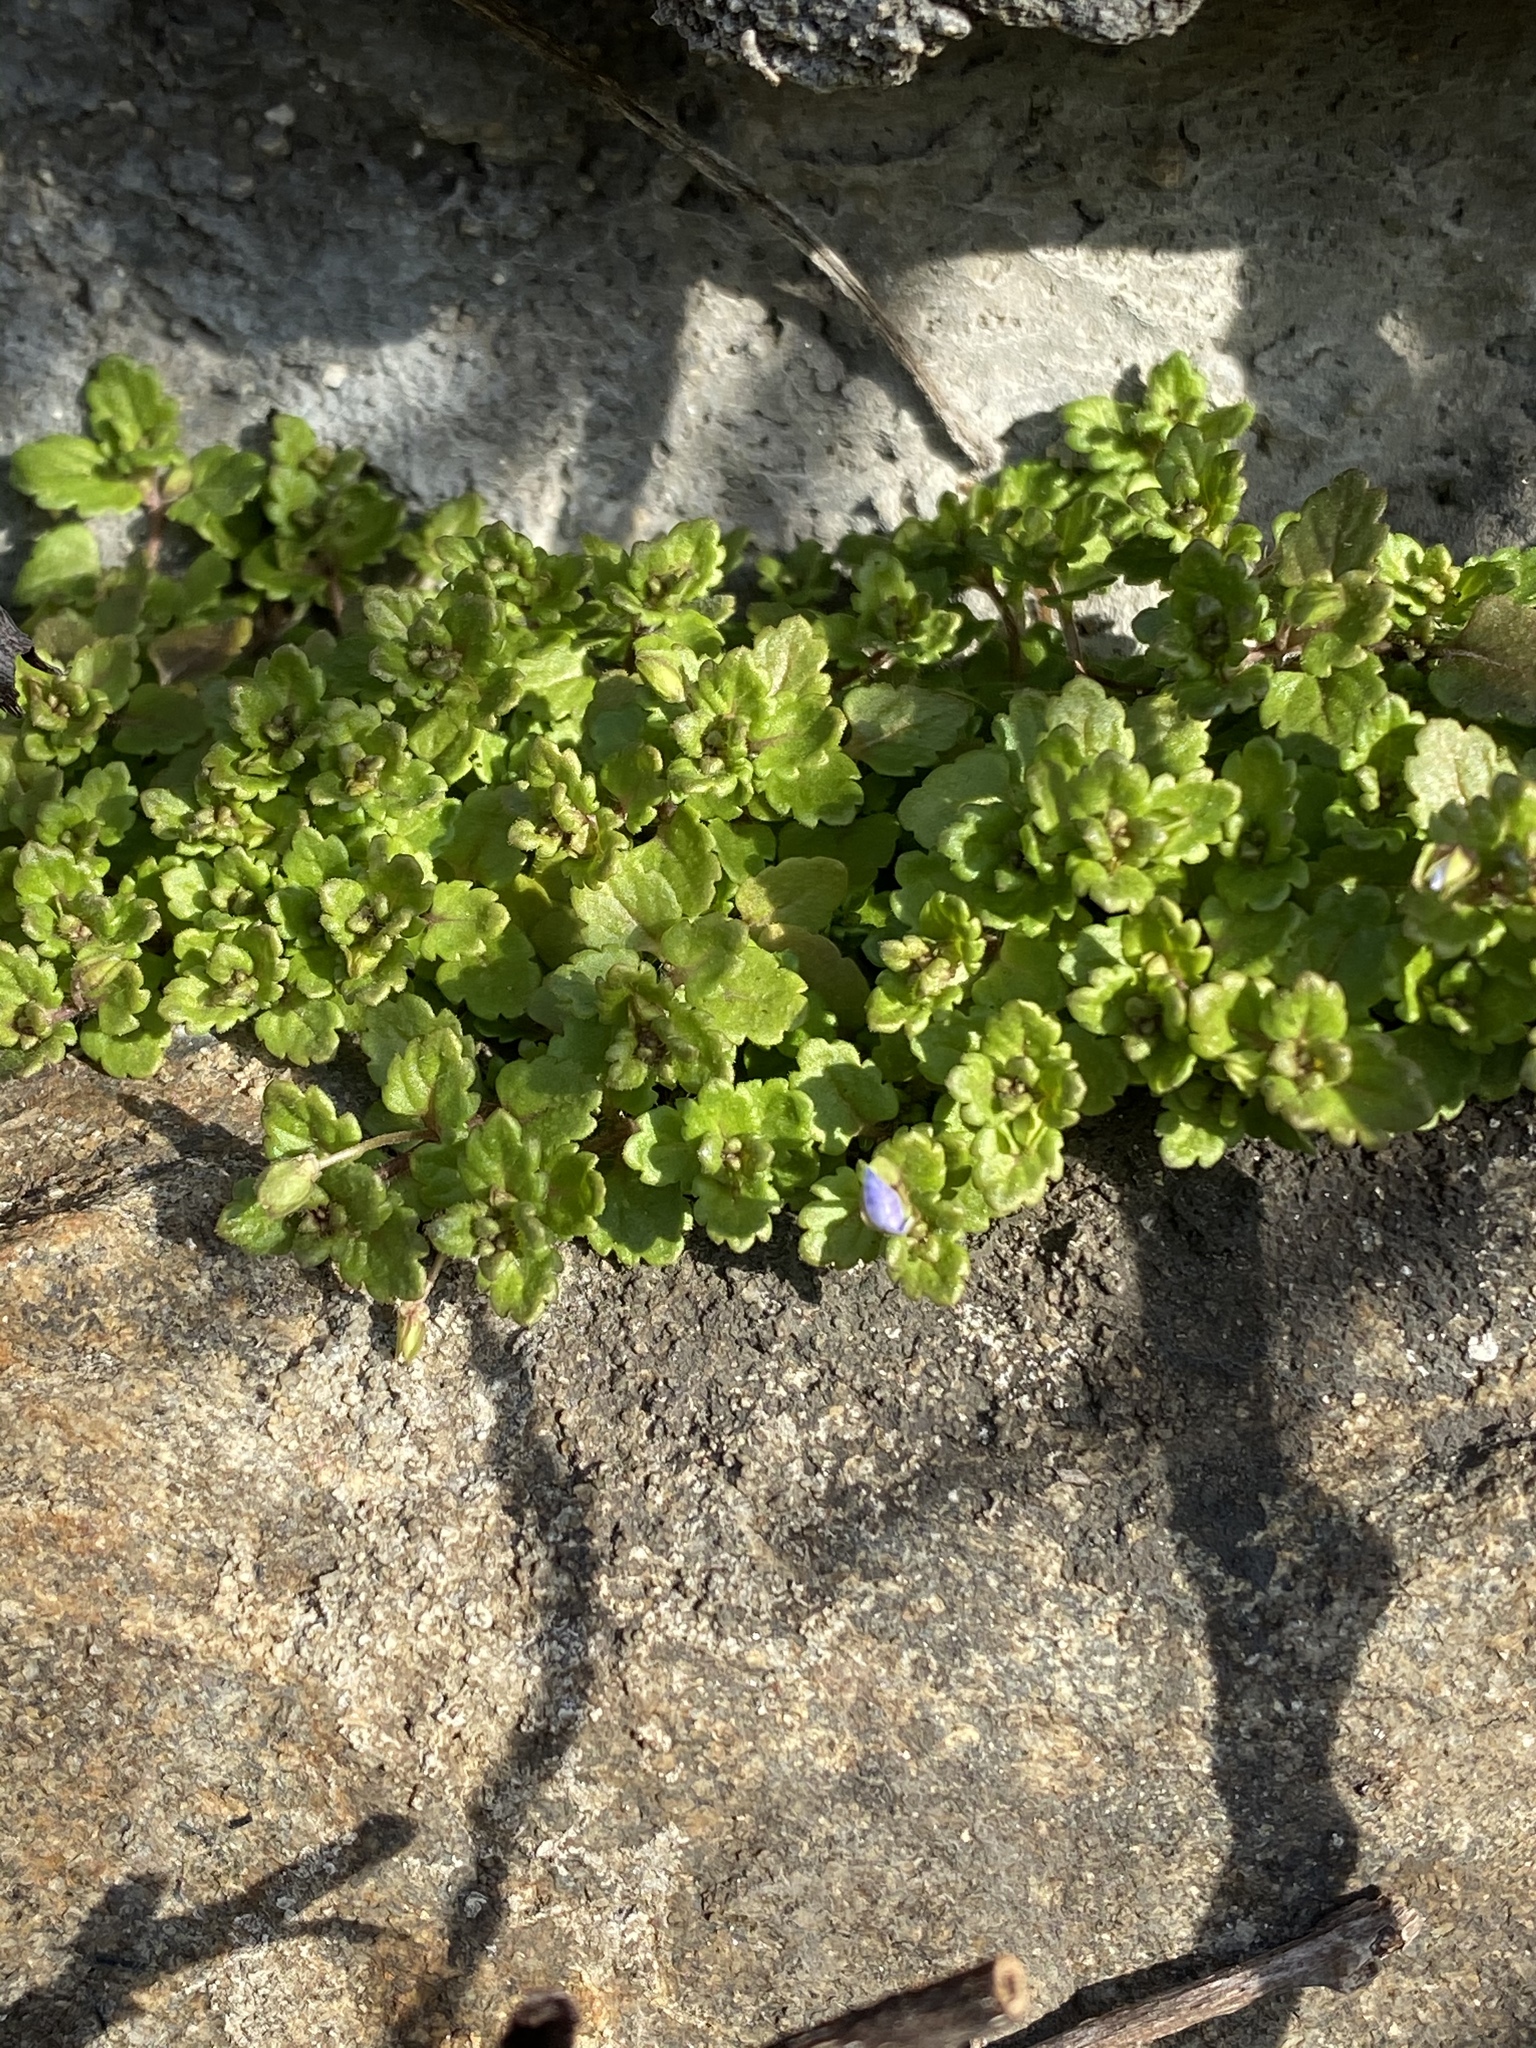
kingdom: Plantae
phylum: Tracheophyta
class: Magnoliopsida
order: Lamiales
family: Plantaginaceae
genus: Veronica
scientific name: Veronica polita
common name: Grey field-speedwell
